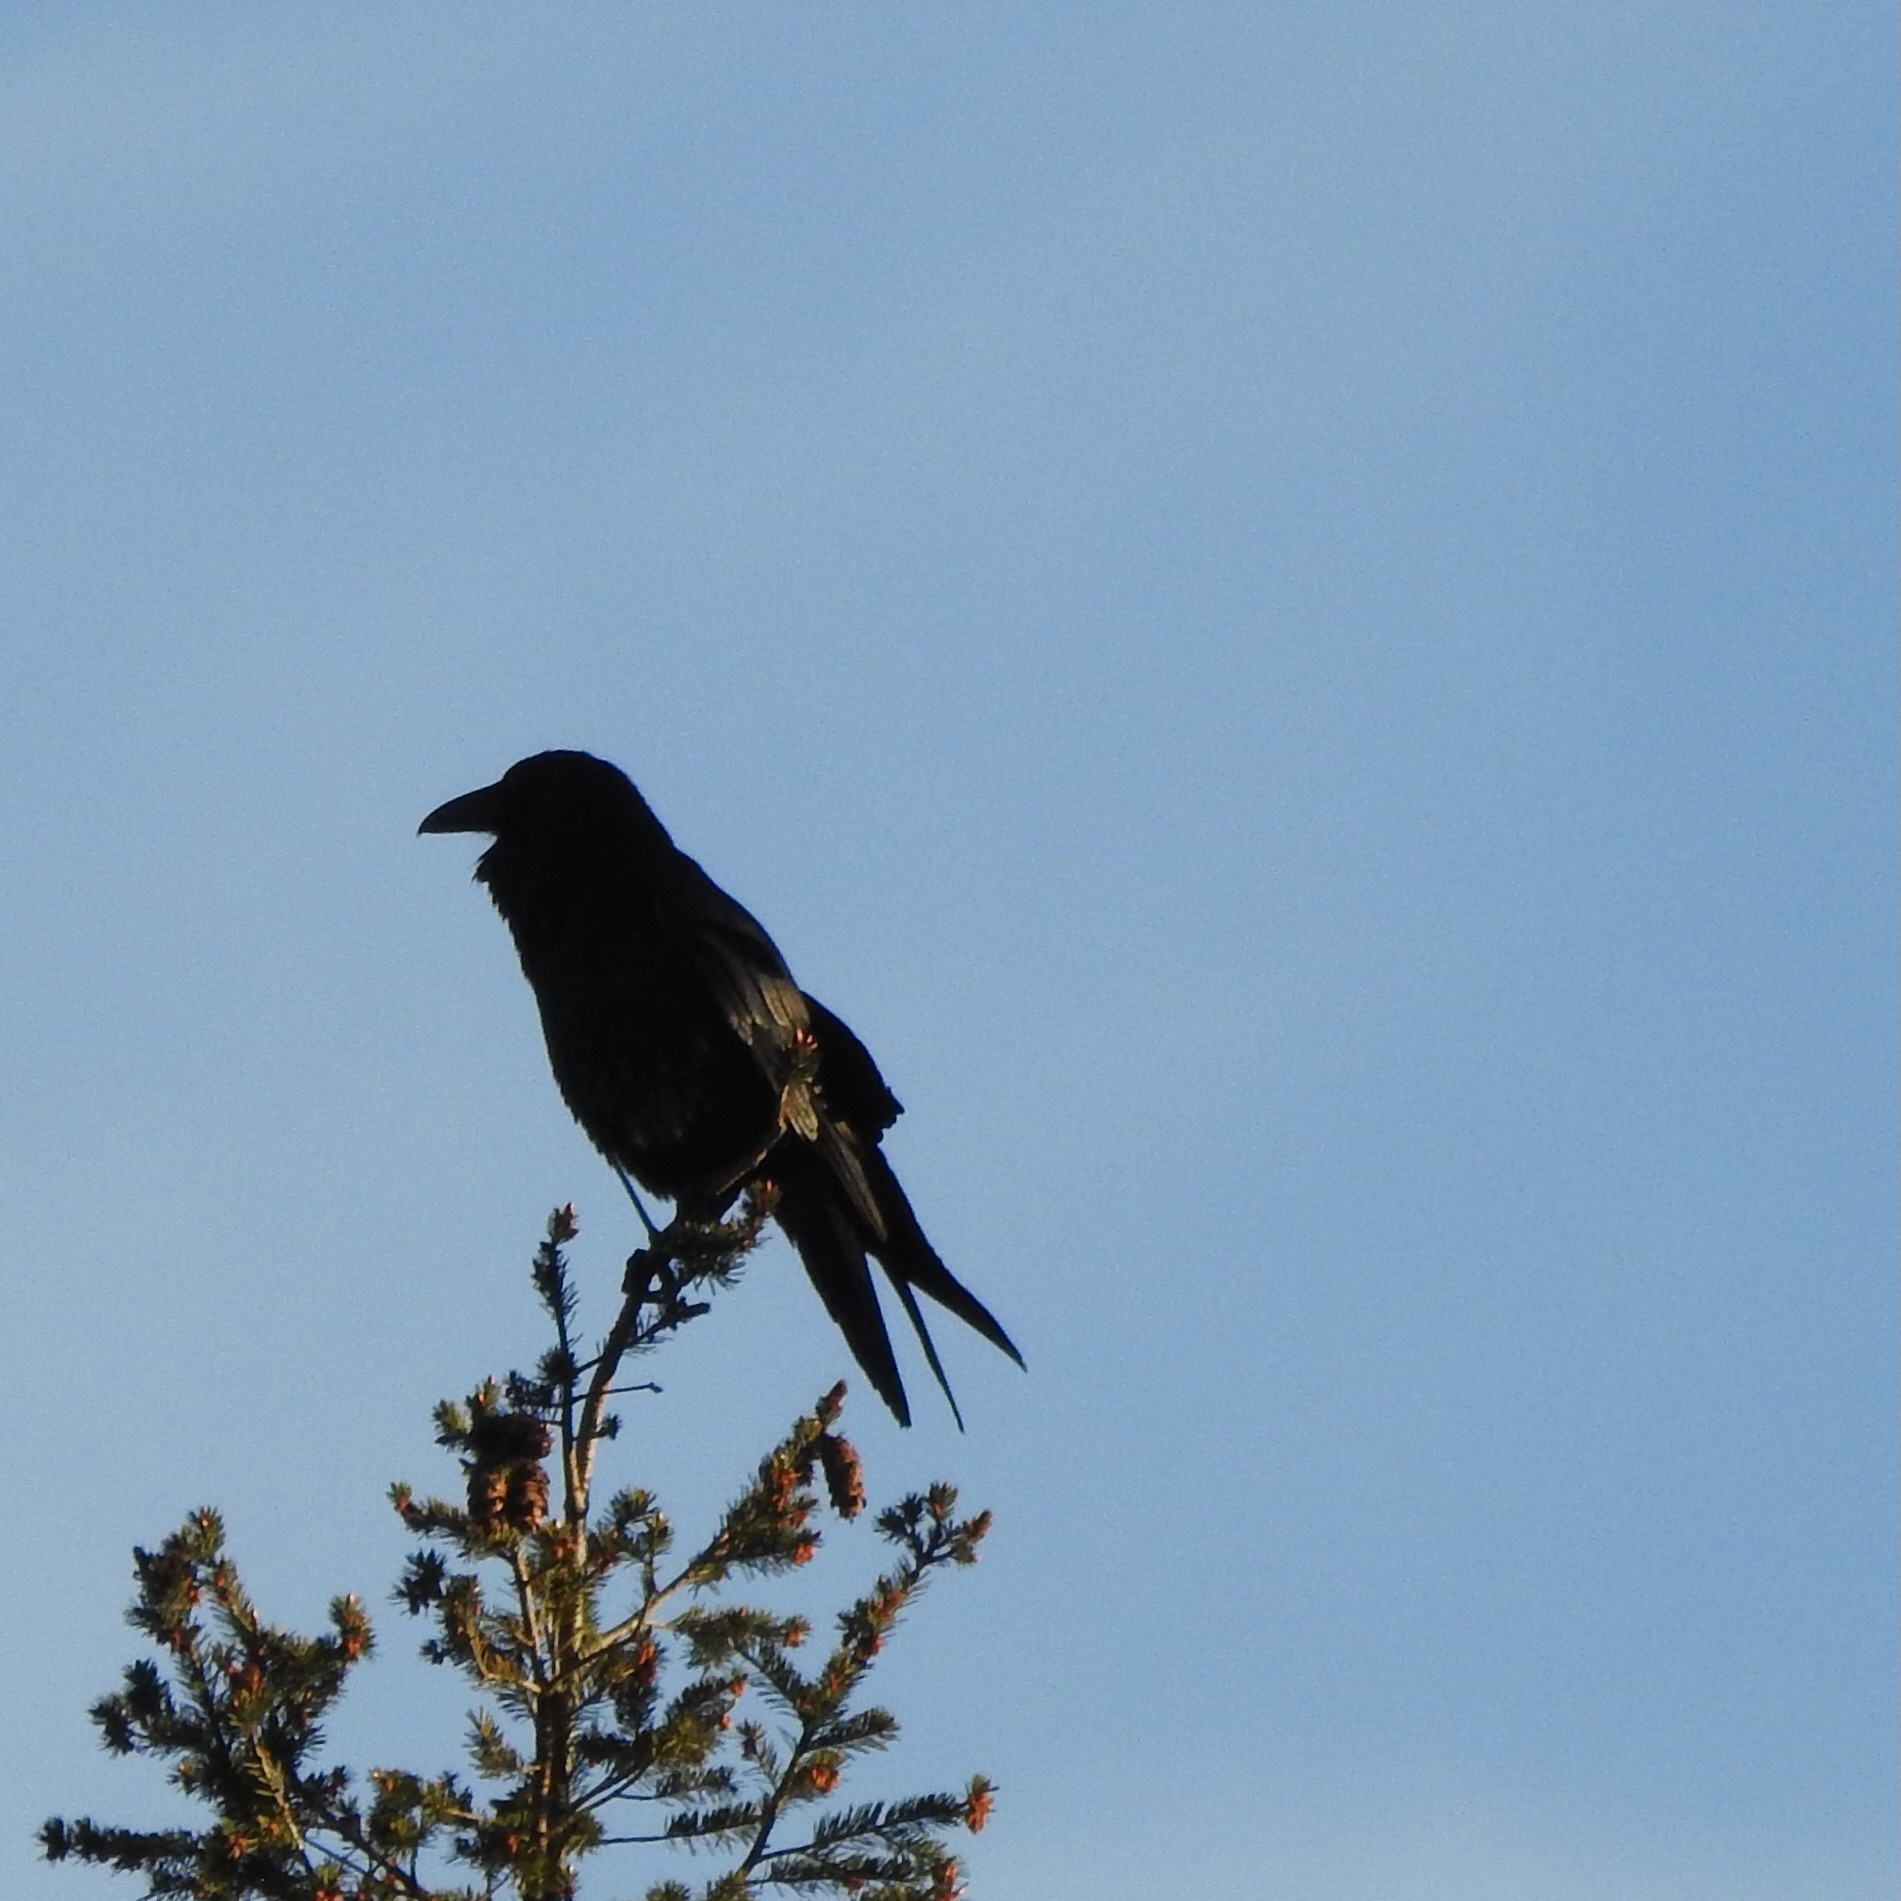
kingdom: Animalia
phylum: Chordata
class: Aves
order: Passeriformes
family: Corvidae
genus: Corvus
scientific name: Corvus corax
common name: Common raven
